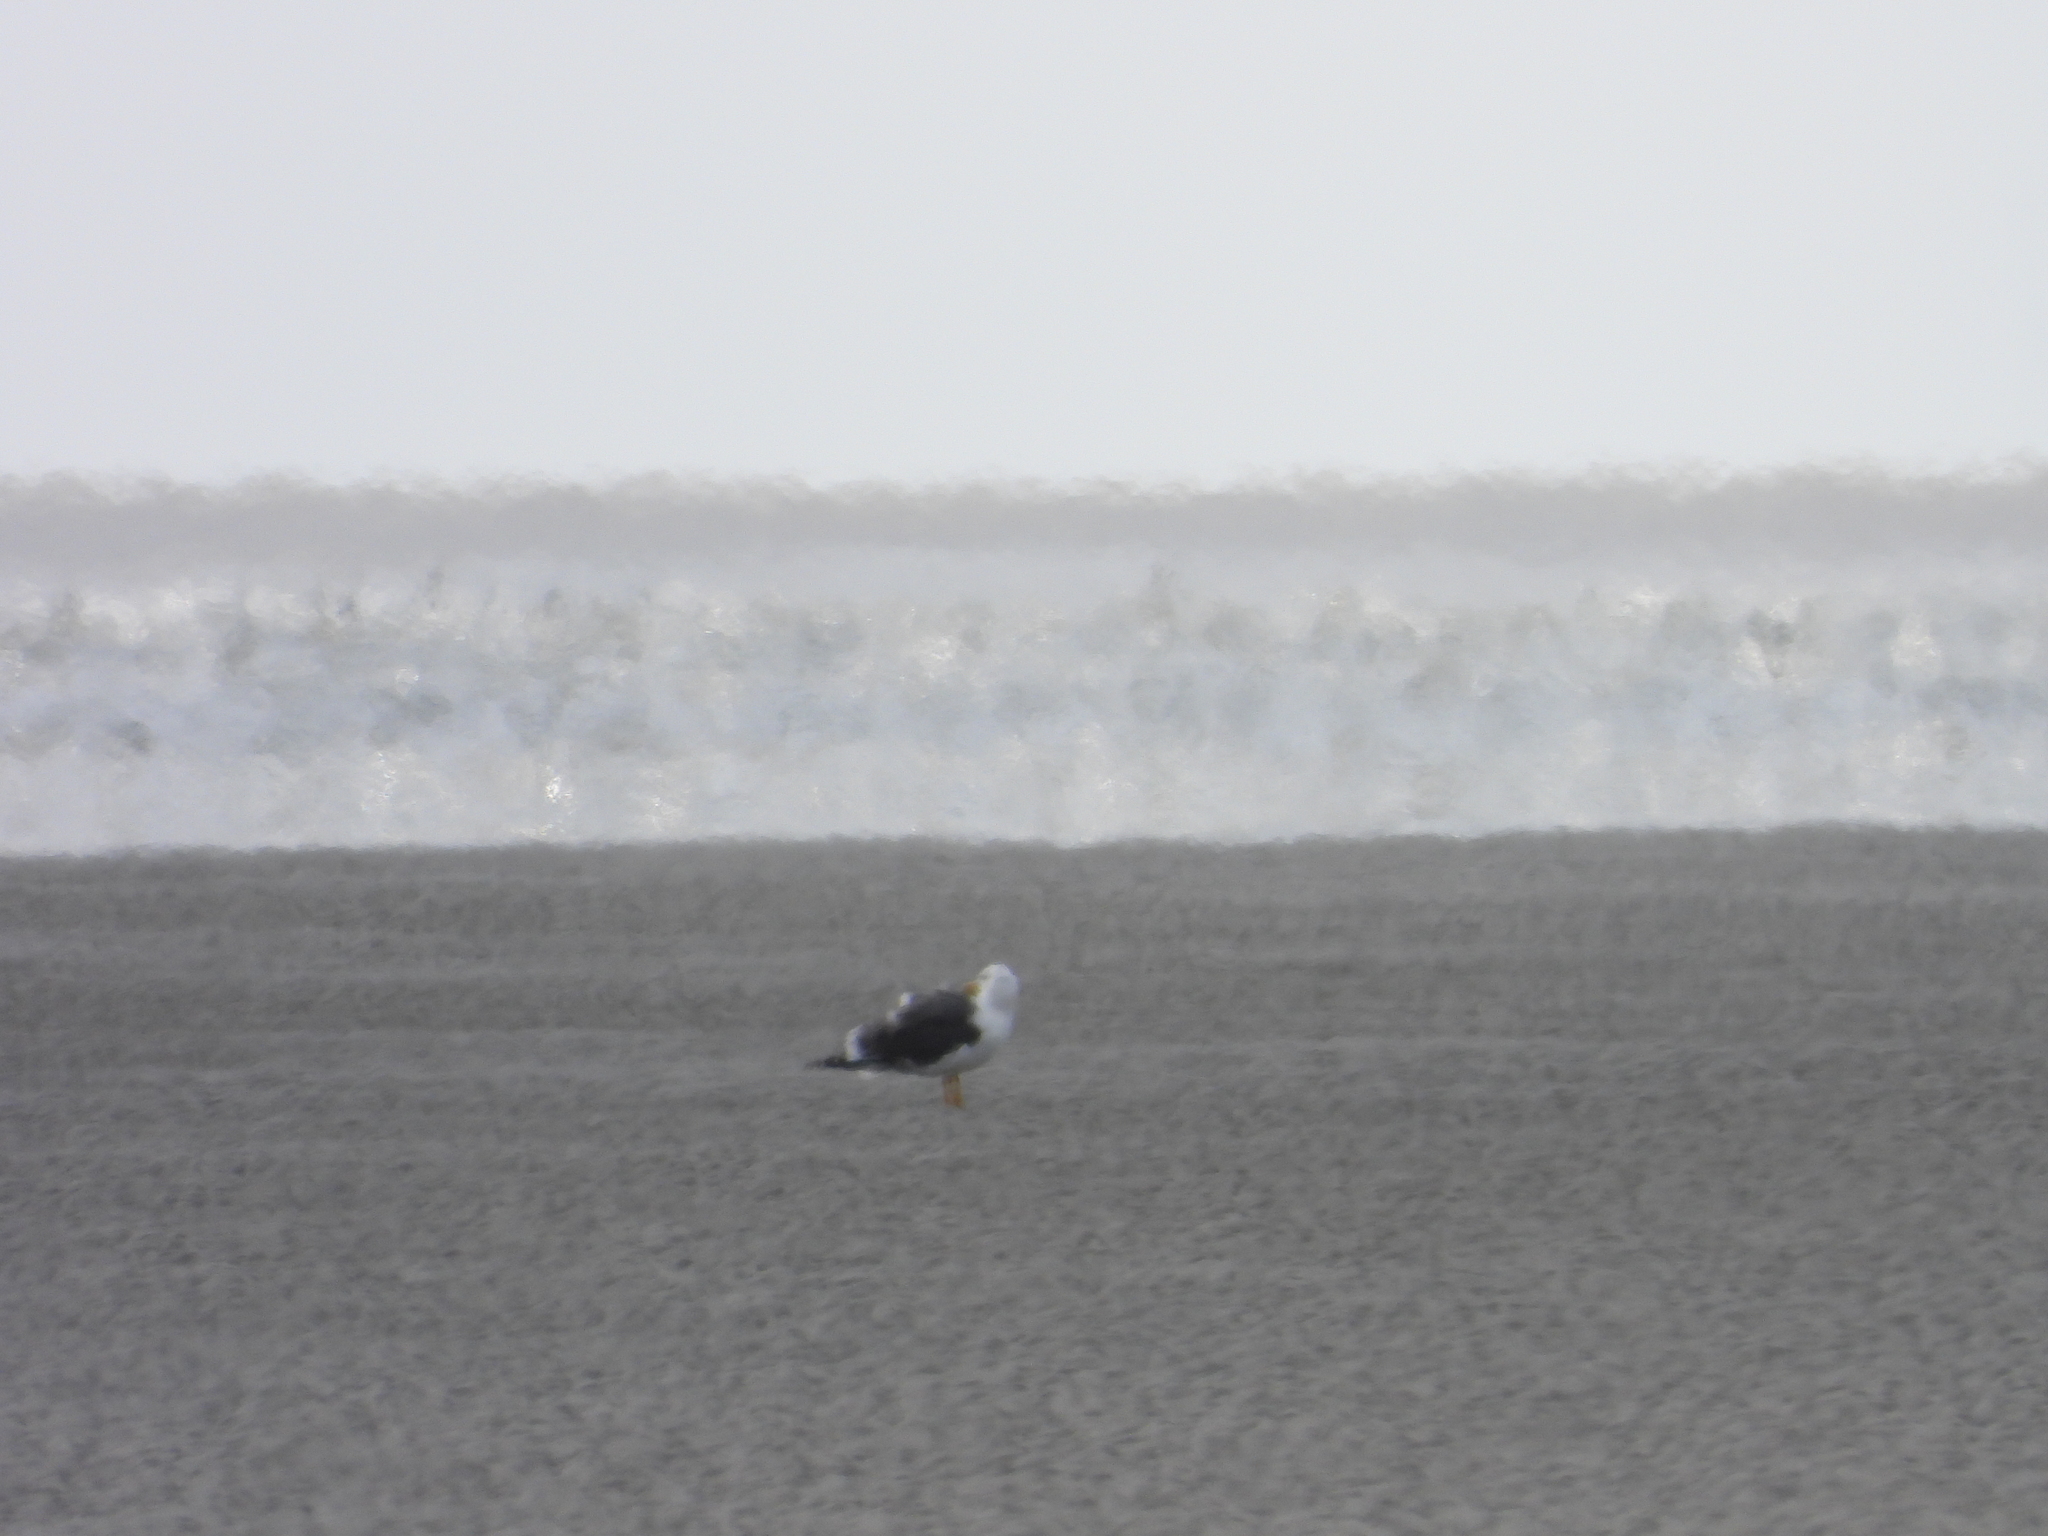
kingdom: Animalia
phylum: Chordata
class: Aves
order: Charadriiformes
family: Laridae
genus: Larus
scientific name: Larus fuscus
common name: Lesser black-backed gull
